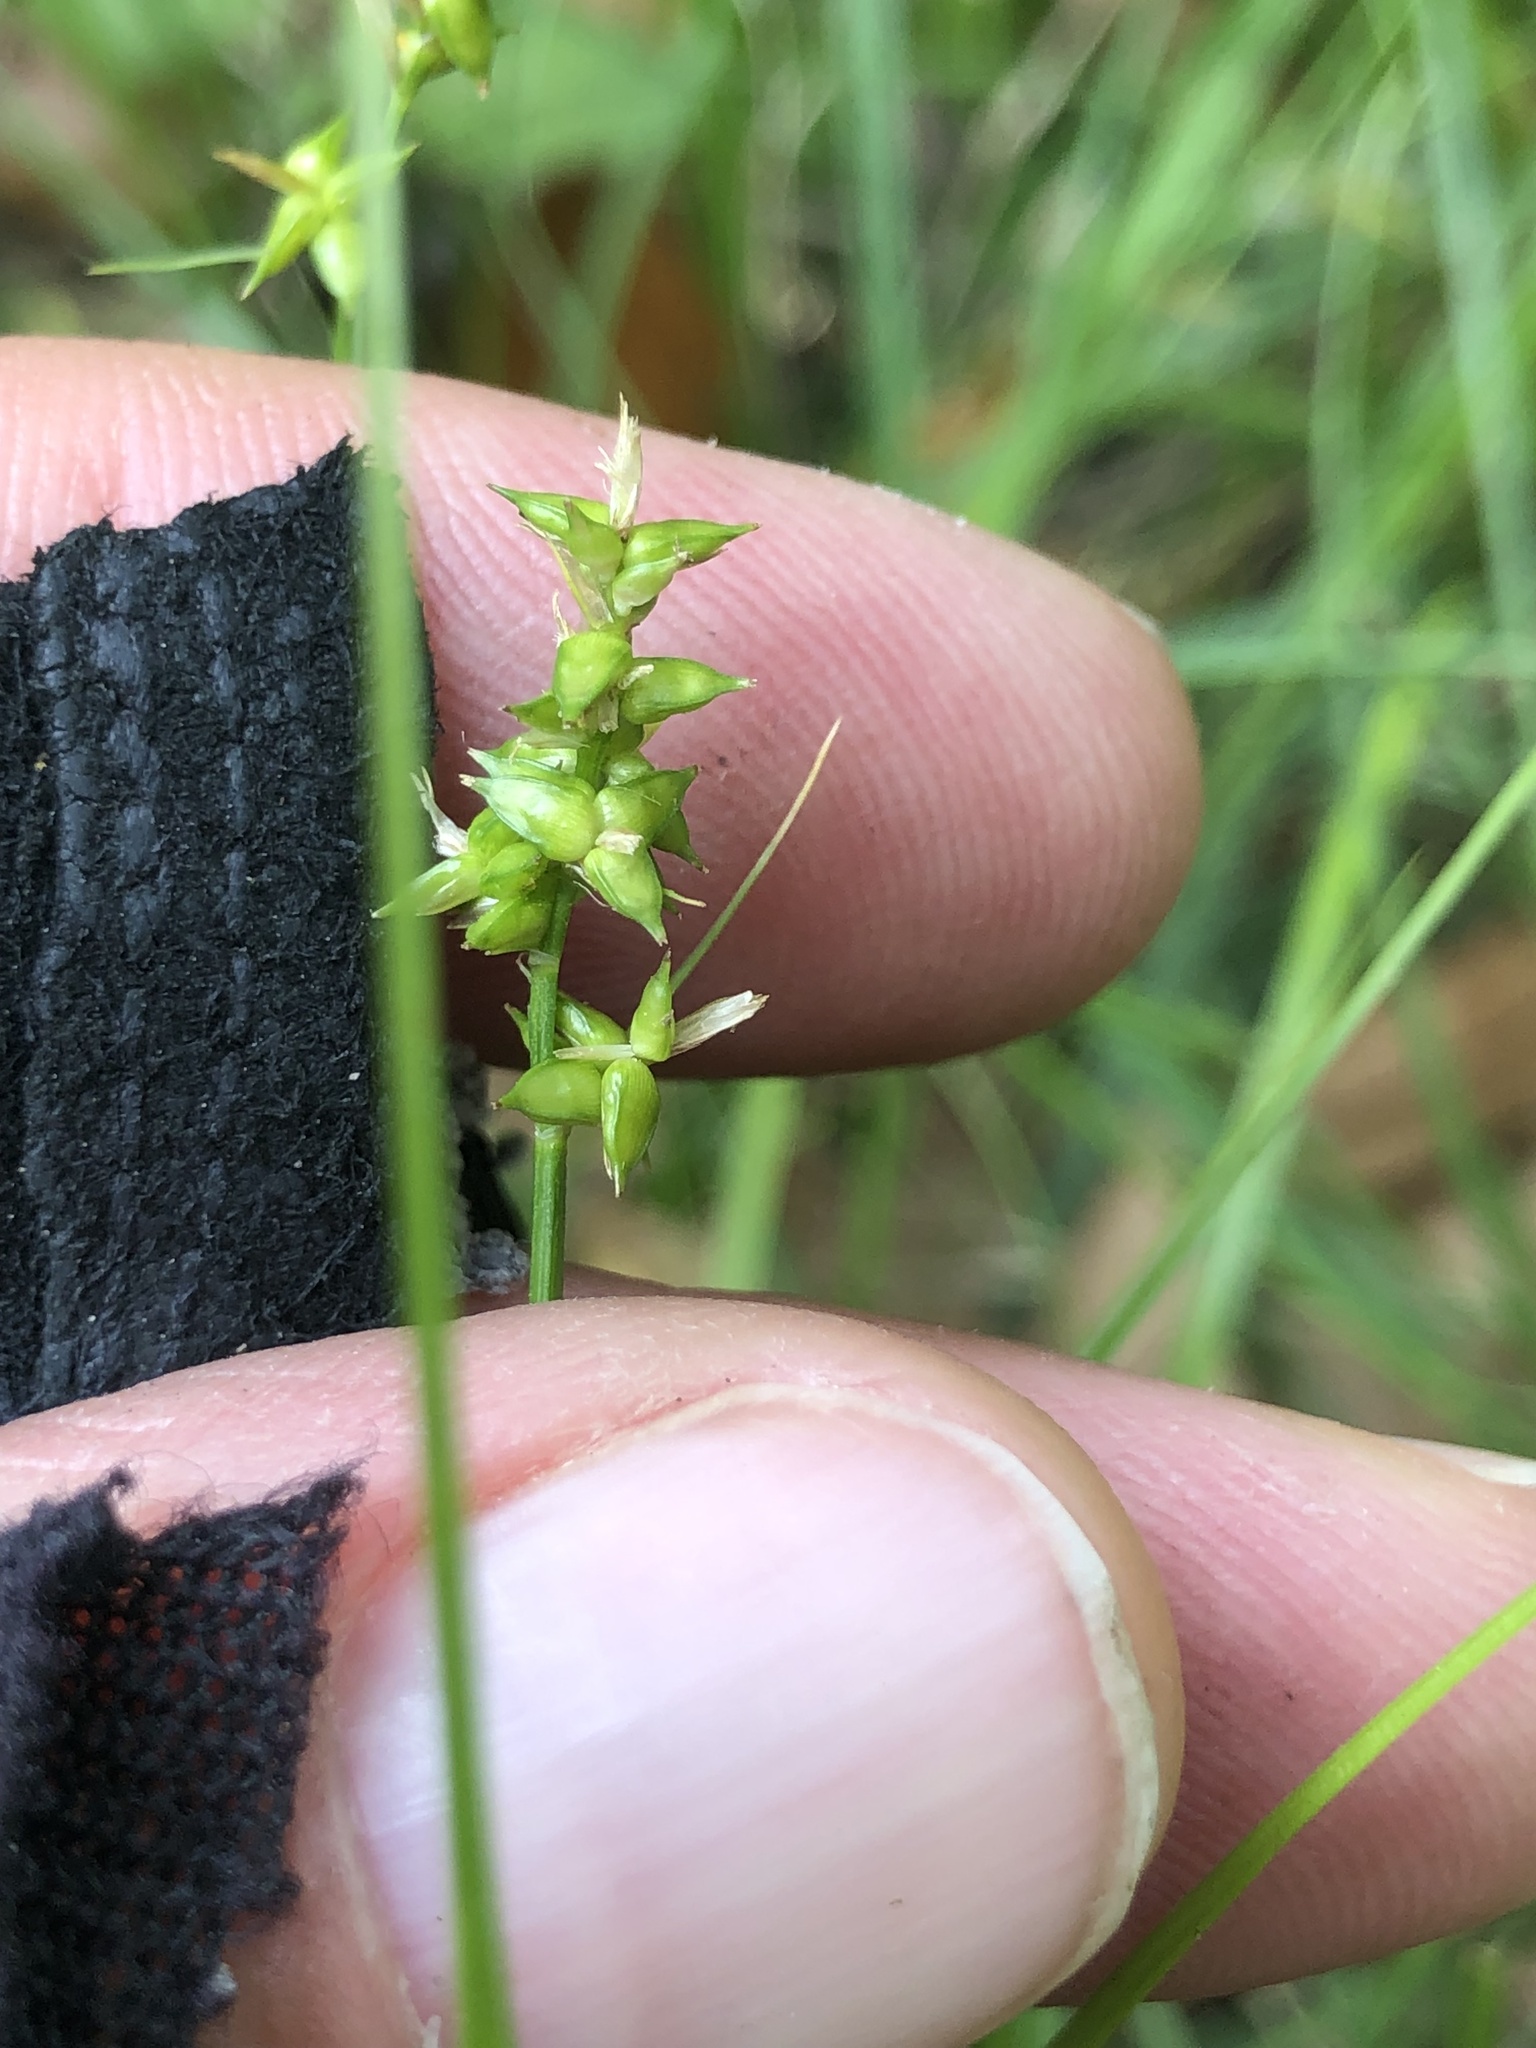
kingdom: Plantae
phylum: Tracheophyta
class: Liliopsida
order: Poales
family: Cyperaceae
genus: Carex
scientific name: Carex retroflexa
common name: Reflexed sedge
